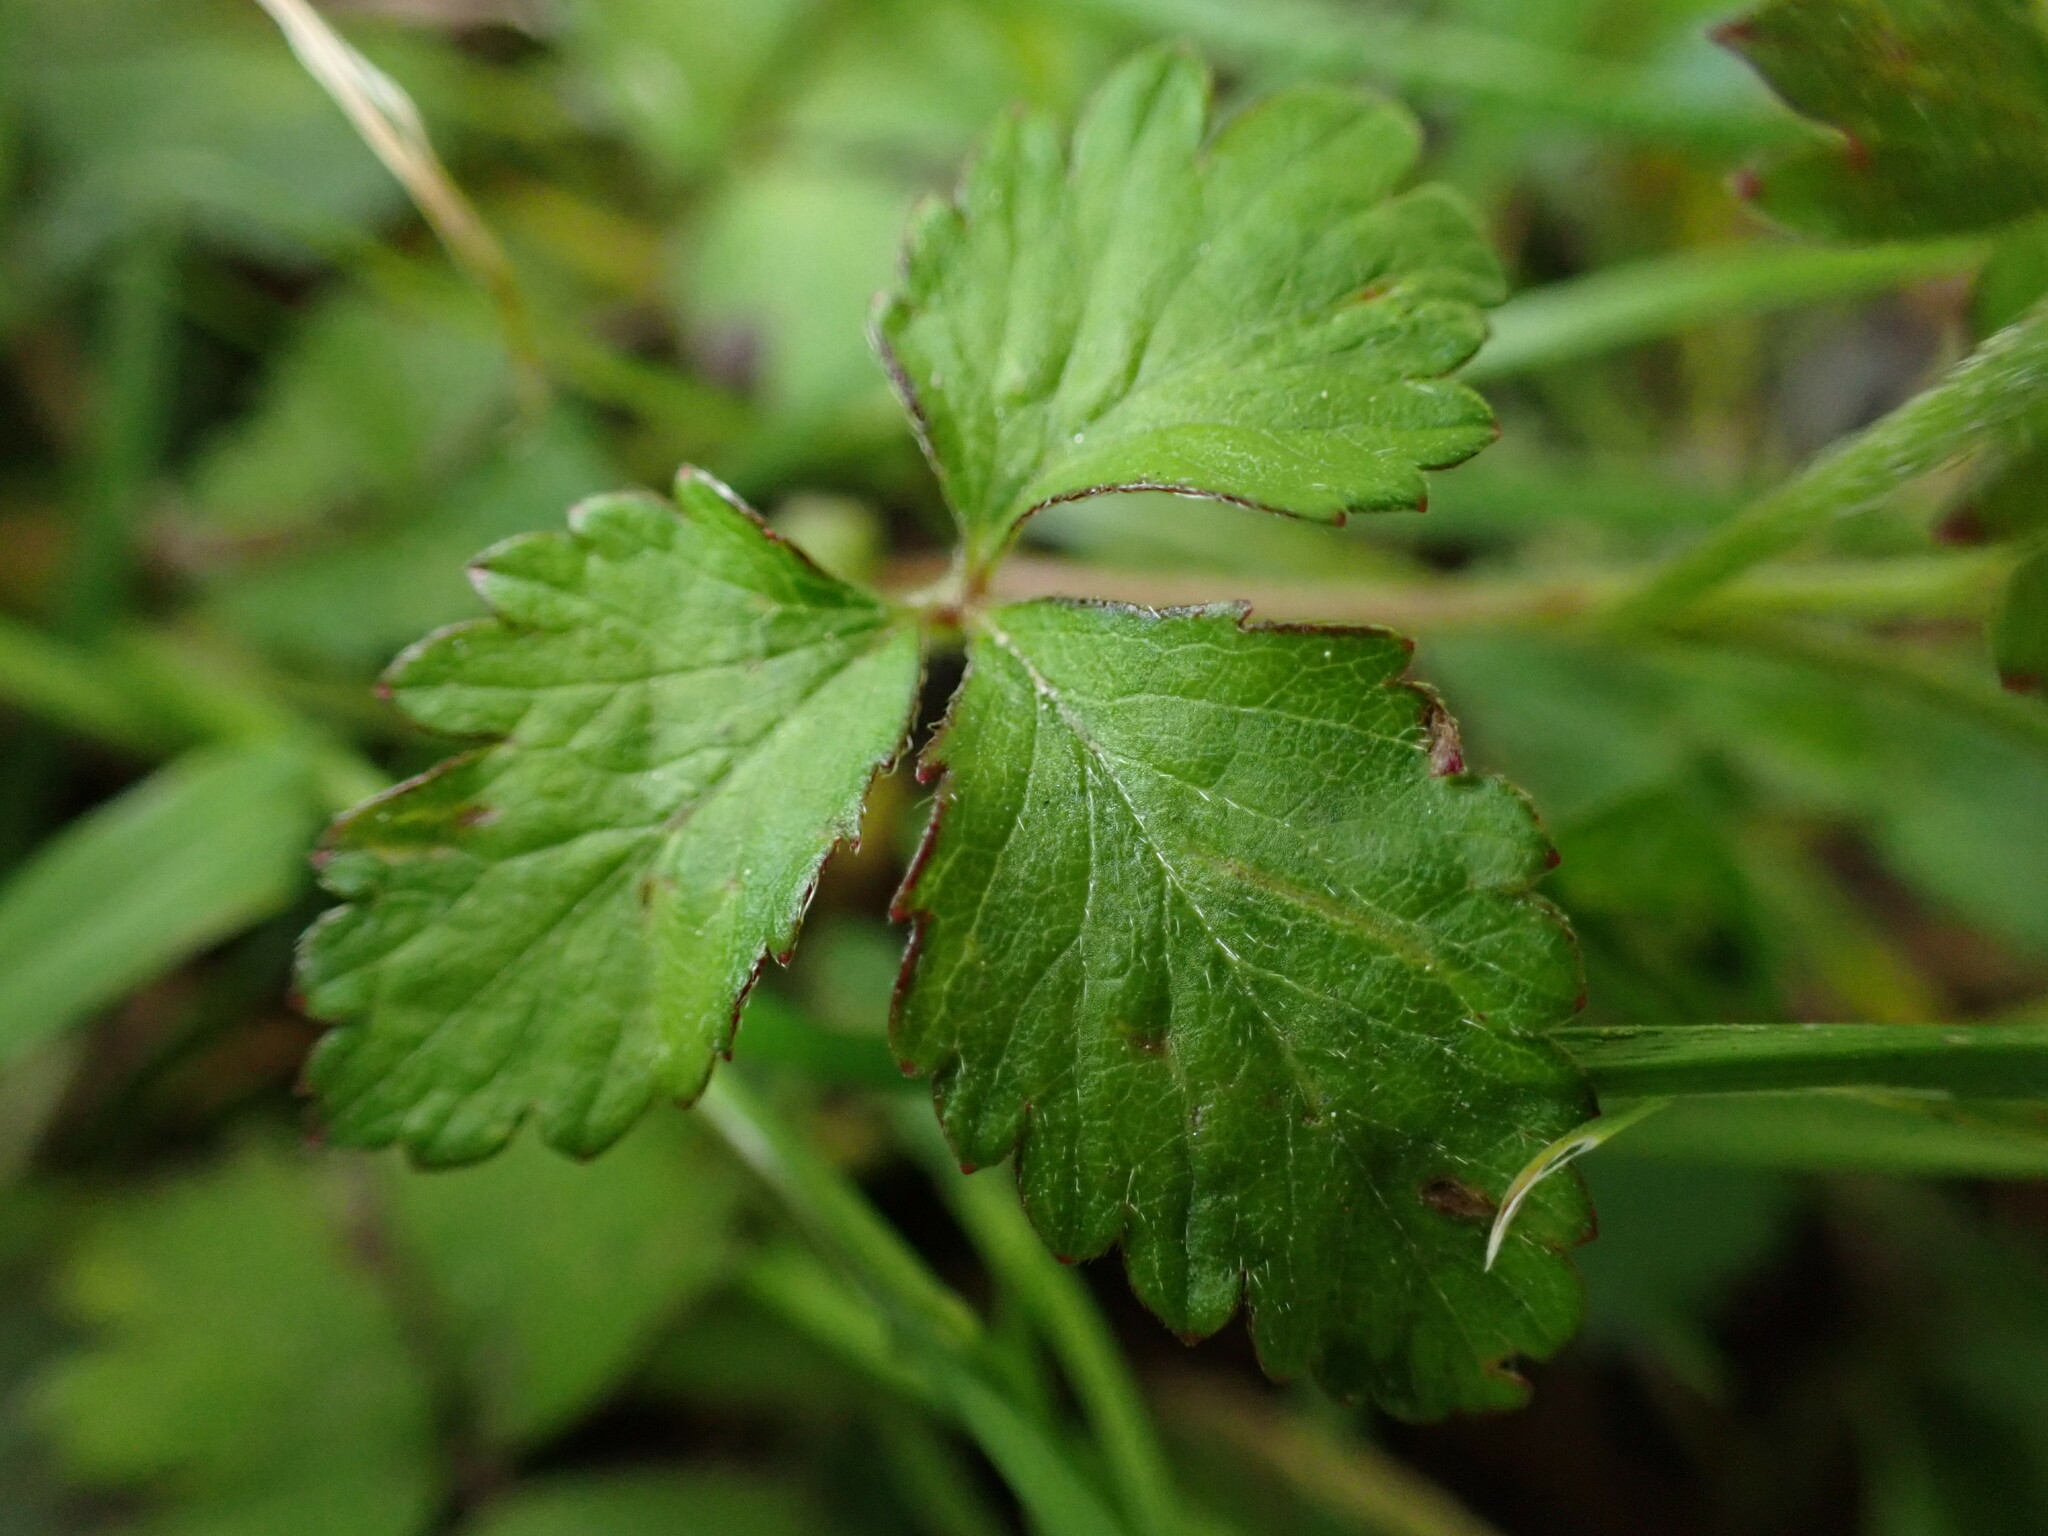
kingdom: Plantae
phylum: Tracheophyta
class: Magnoliopsida
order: Rosales
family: Rosaceae
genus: Potentilla
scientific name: Potentilla indica
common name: Yellow-flowered strawberry
